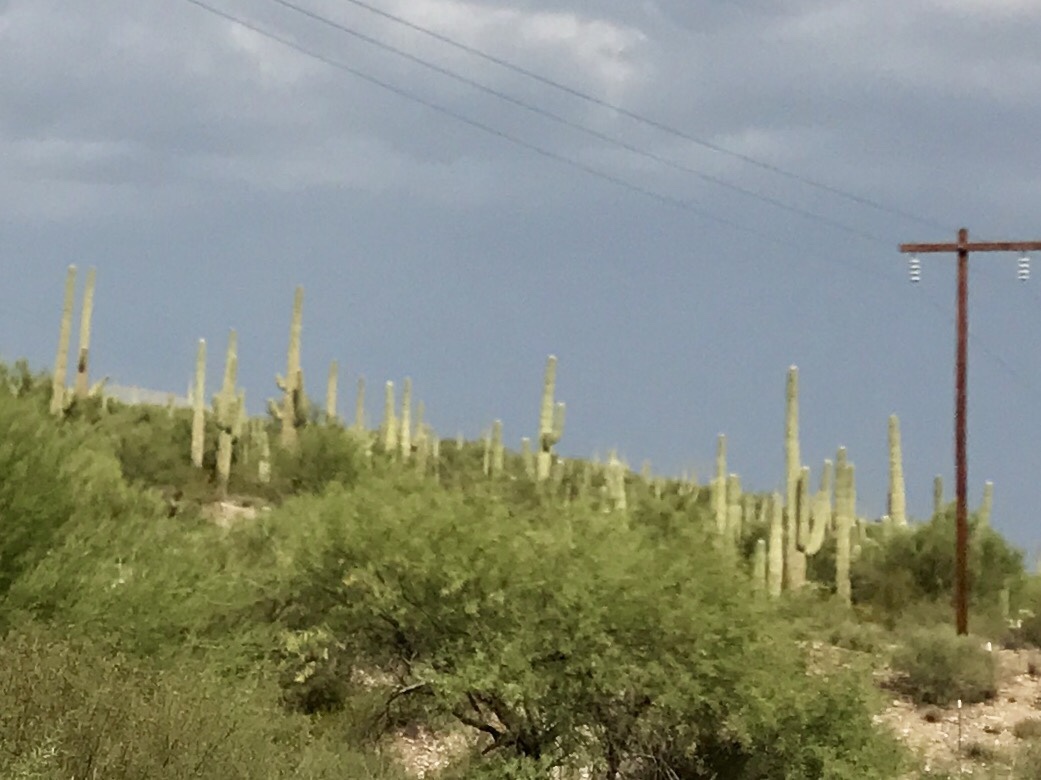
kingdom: Plantae
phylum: Tracheophyta
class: Magnoliopsida
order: Caryophyllales
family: Cactaceae
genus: Carnegiea
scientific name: Carnegiea gigantea
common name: Saguaro
